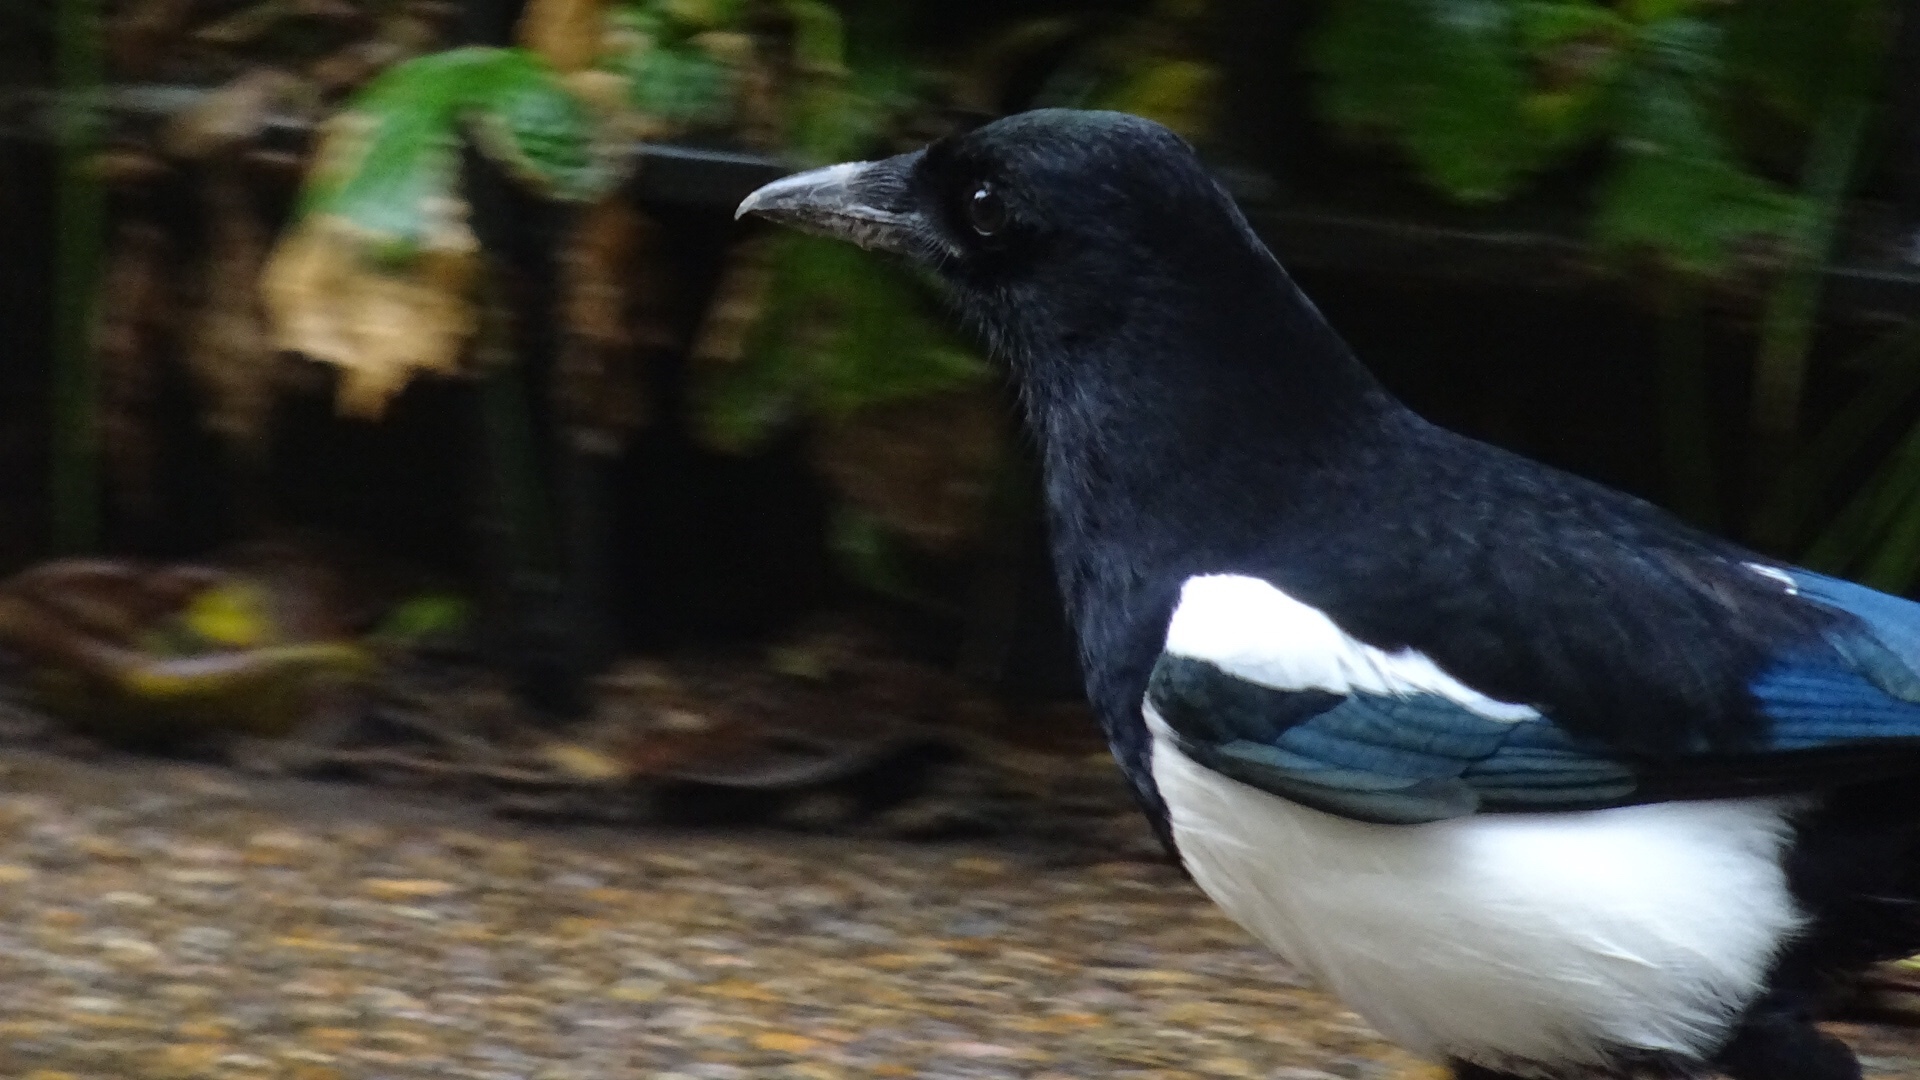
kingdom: Animalia
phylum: Chordata
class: Aves
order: Passeriformes
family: Corvidae
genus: Pica
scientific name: Pica pica
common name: Eurasian magpie
